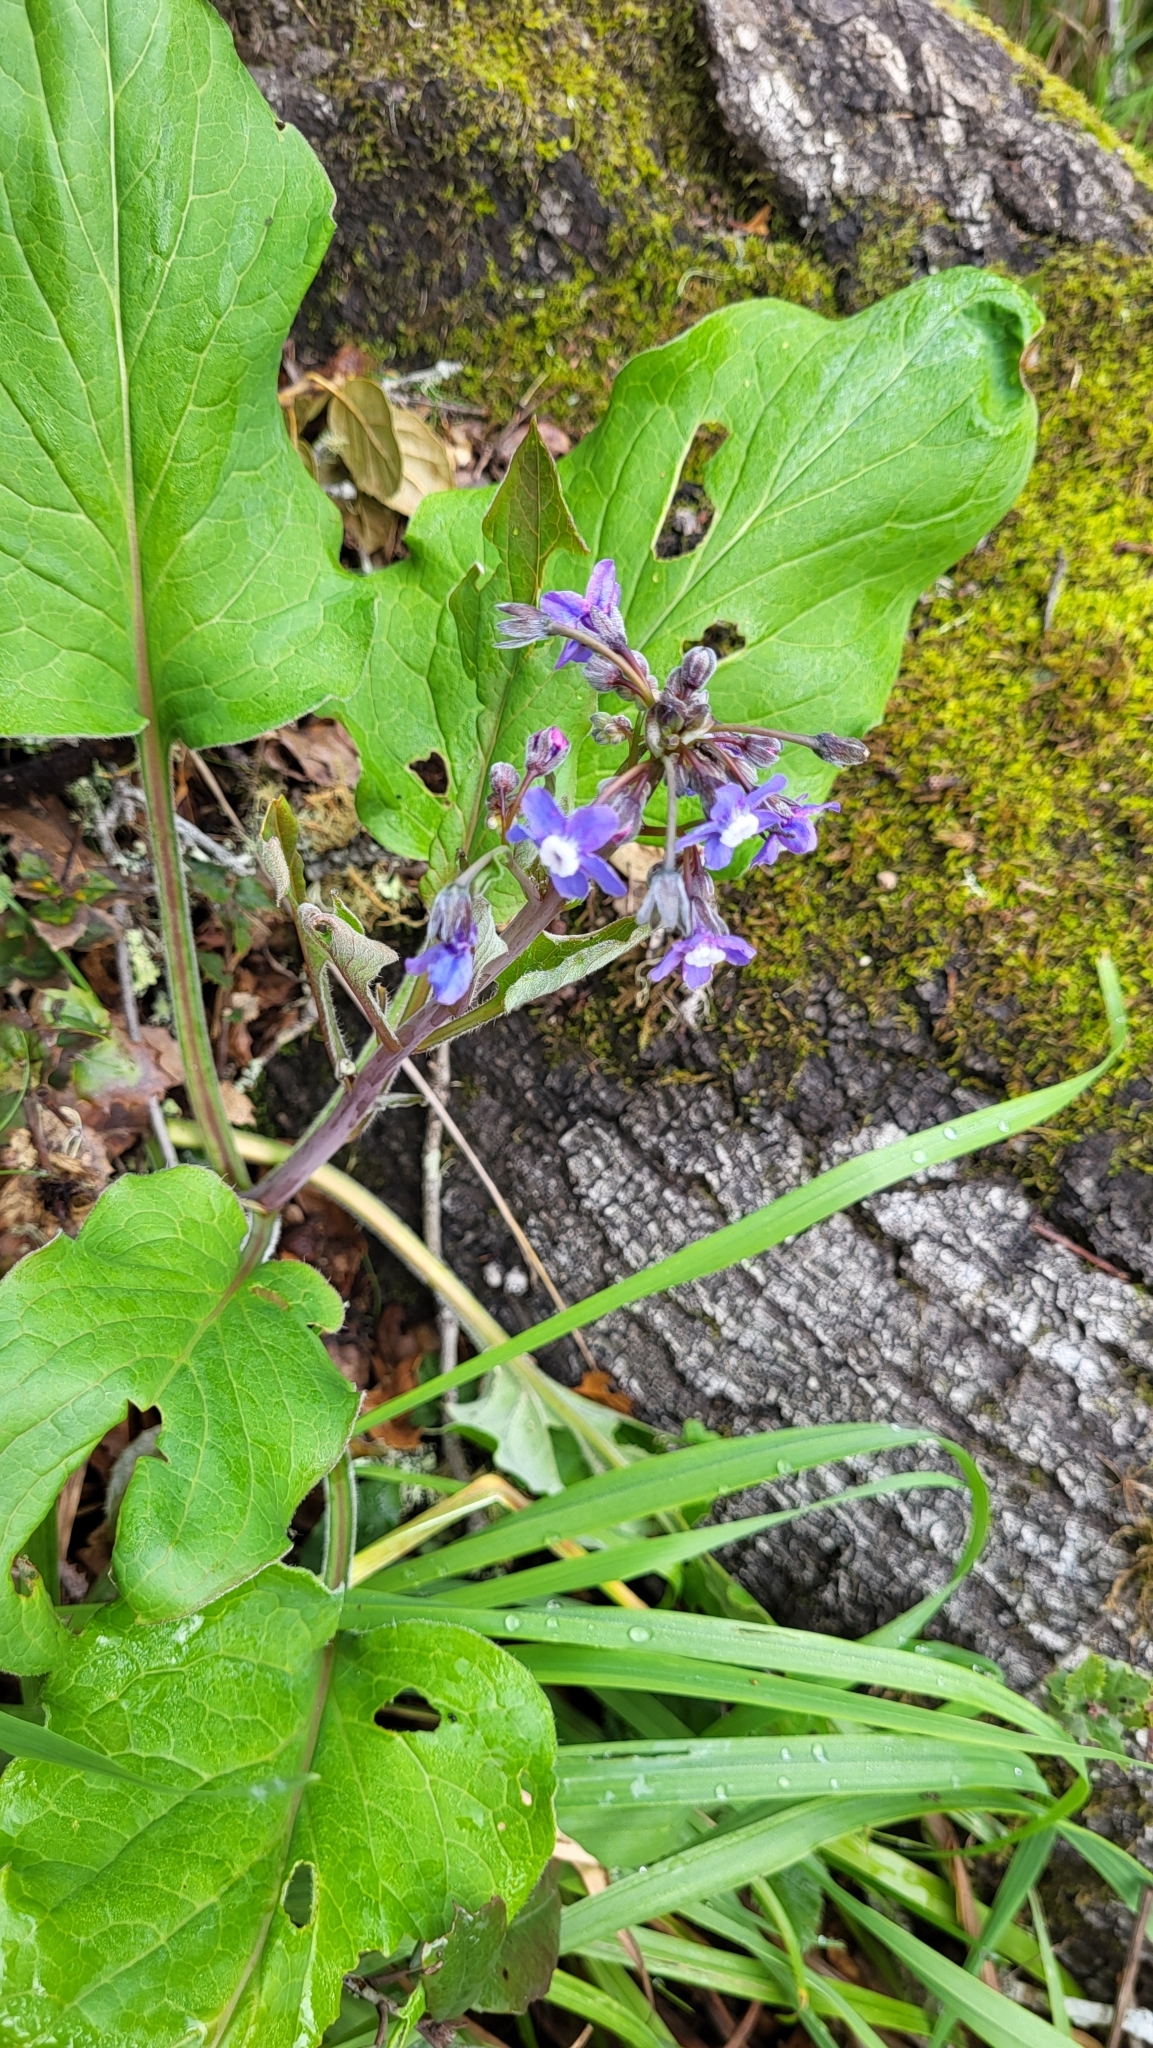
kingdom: Plantae
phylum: Tracheophyta
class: Magnoliopsida
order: Boraginales
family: Boraginaceae
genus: Adelinia
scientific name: Adelinia grande
